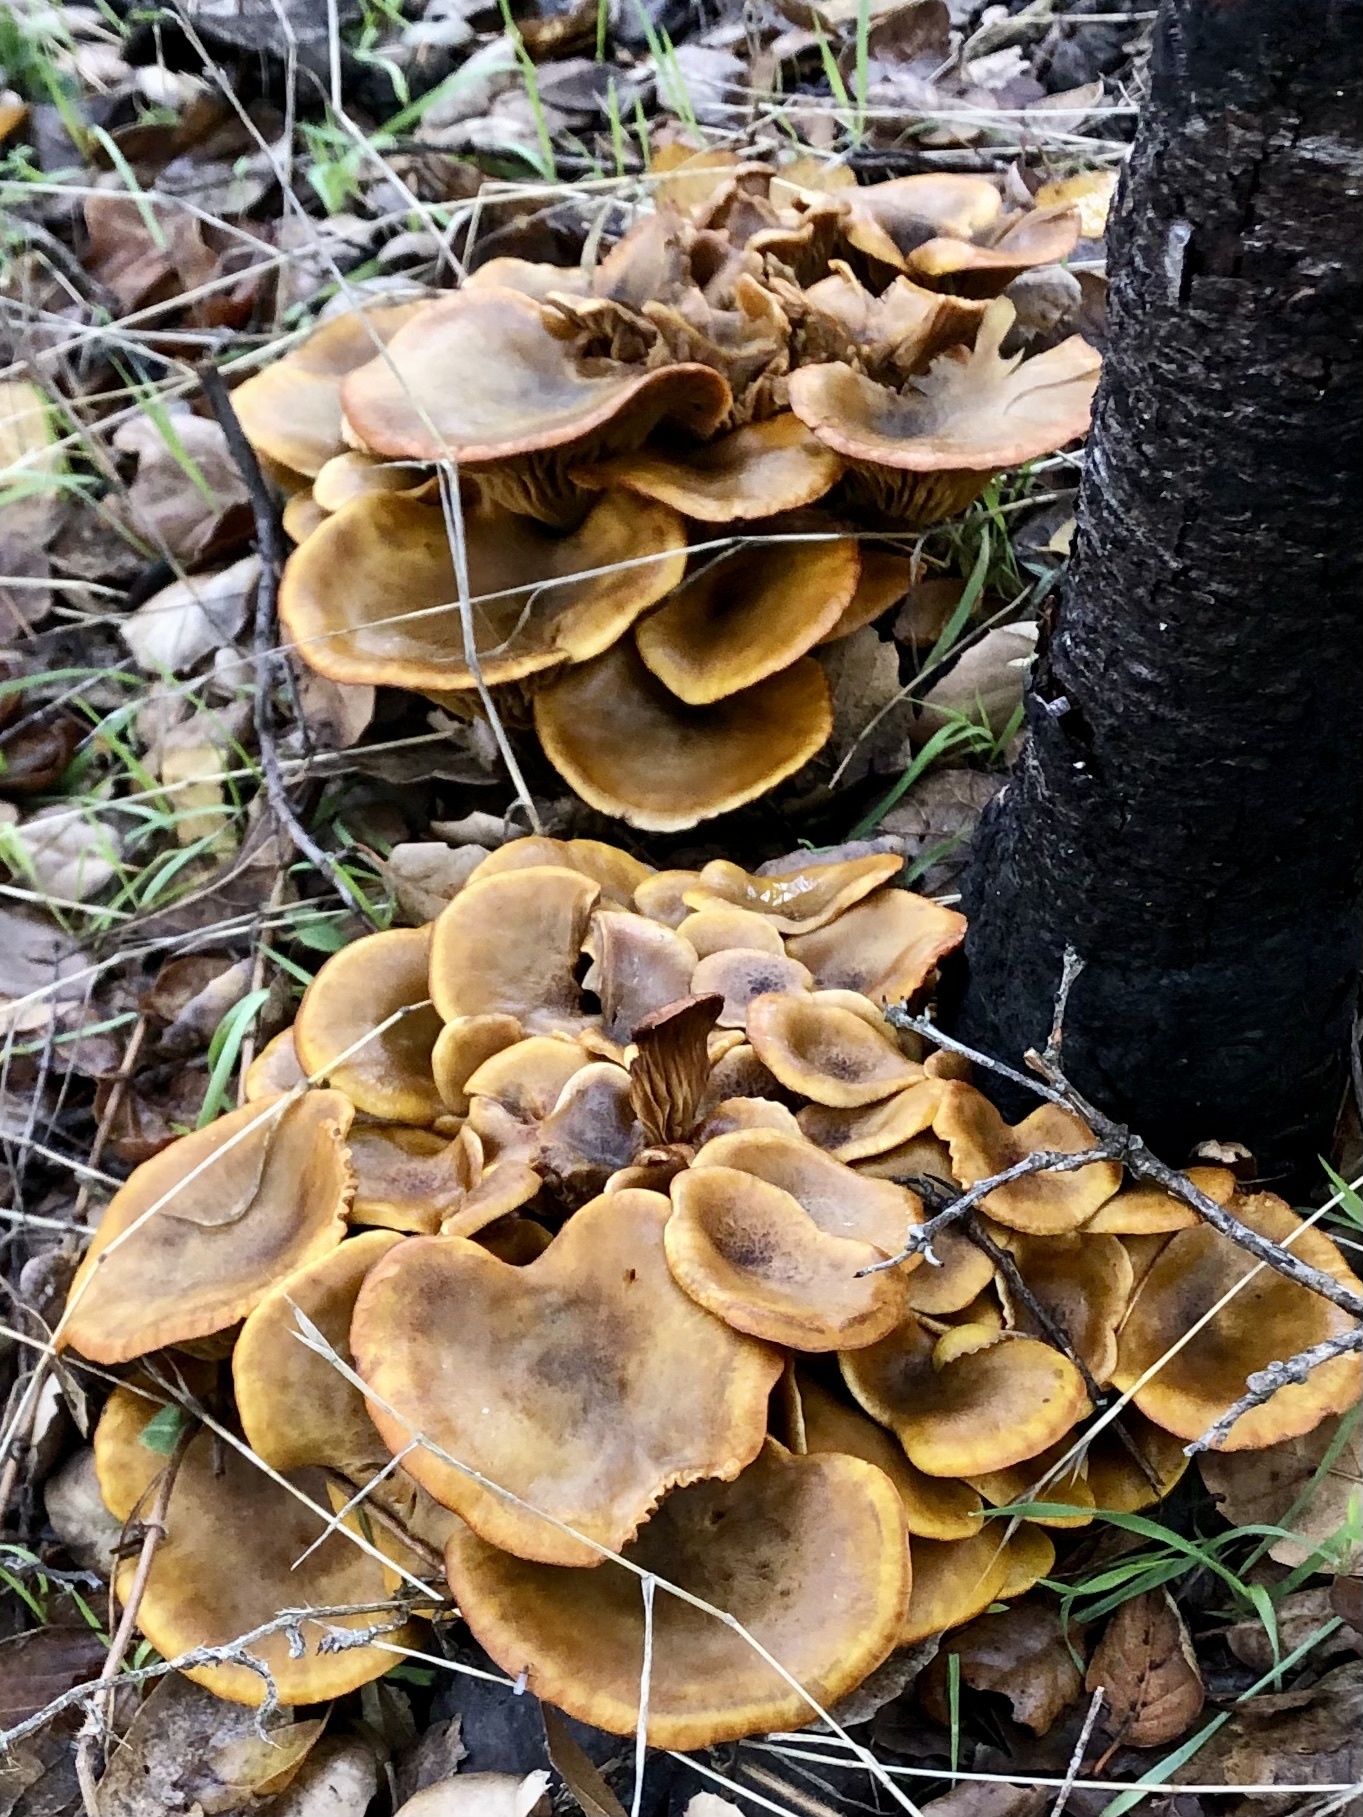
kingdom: Fungi
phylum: Basidiomycota
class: Agaricomycetes
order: Agaricales
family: Omphalotaceae
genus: Omphalotus
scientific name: Omphalotus olivascens
